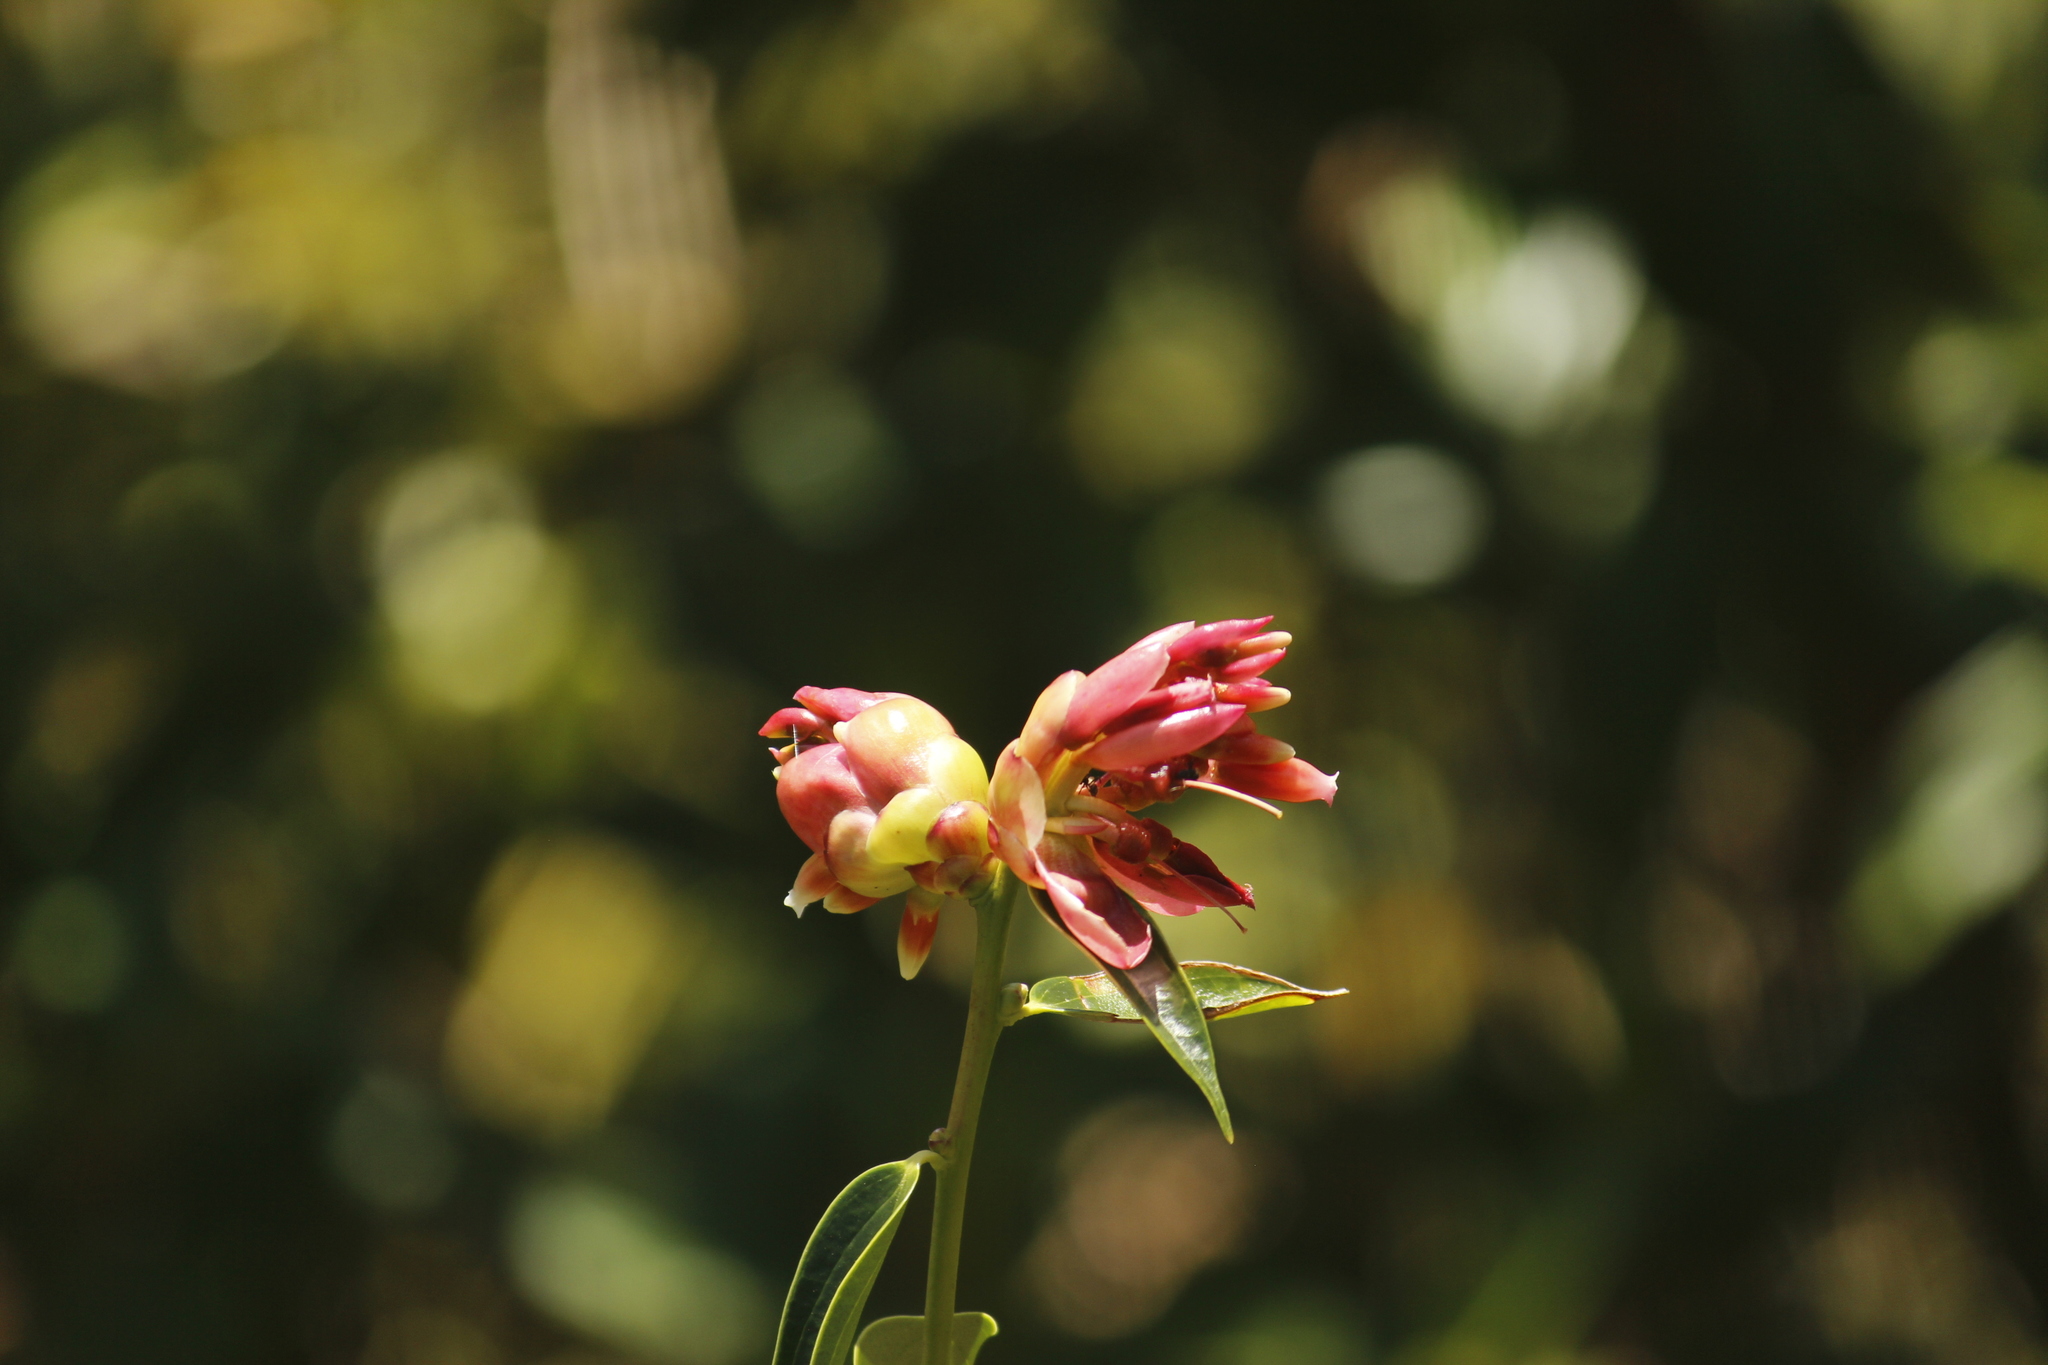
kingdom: Plantae
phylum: Tracheophyta
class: Magnoliopsida
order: Ericales
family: Ericaceae
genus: Cavendishia
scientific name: Cavendishia bracteata
